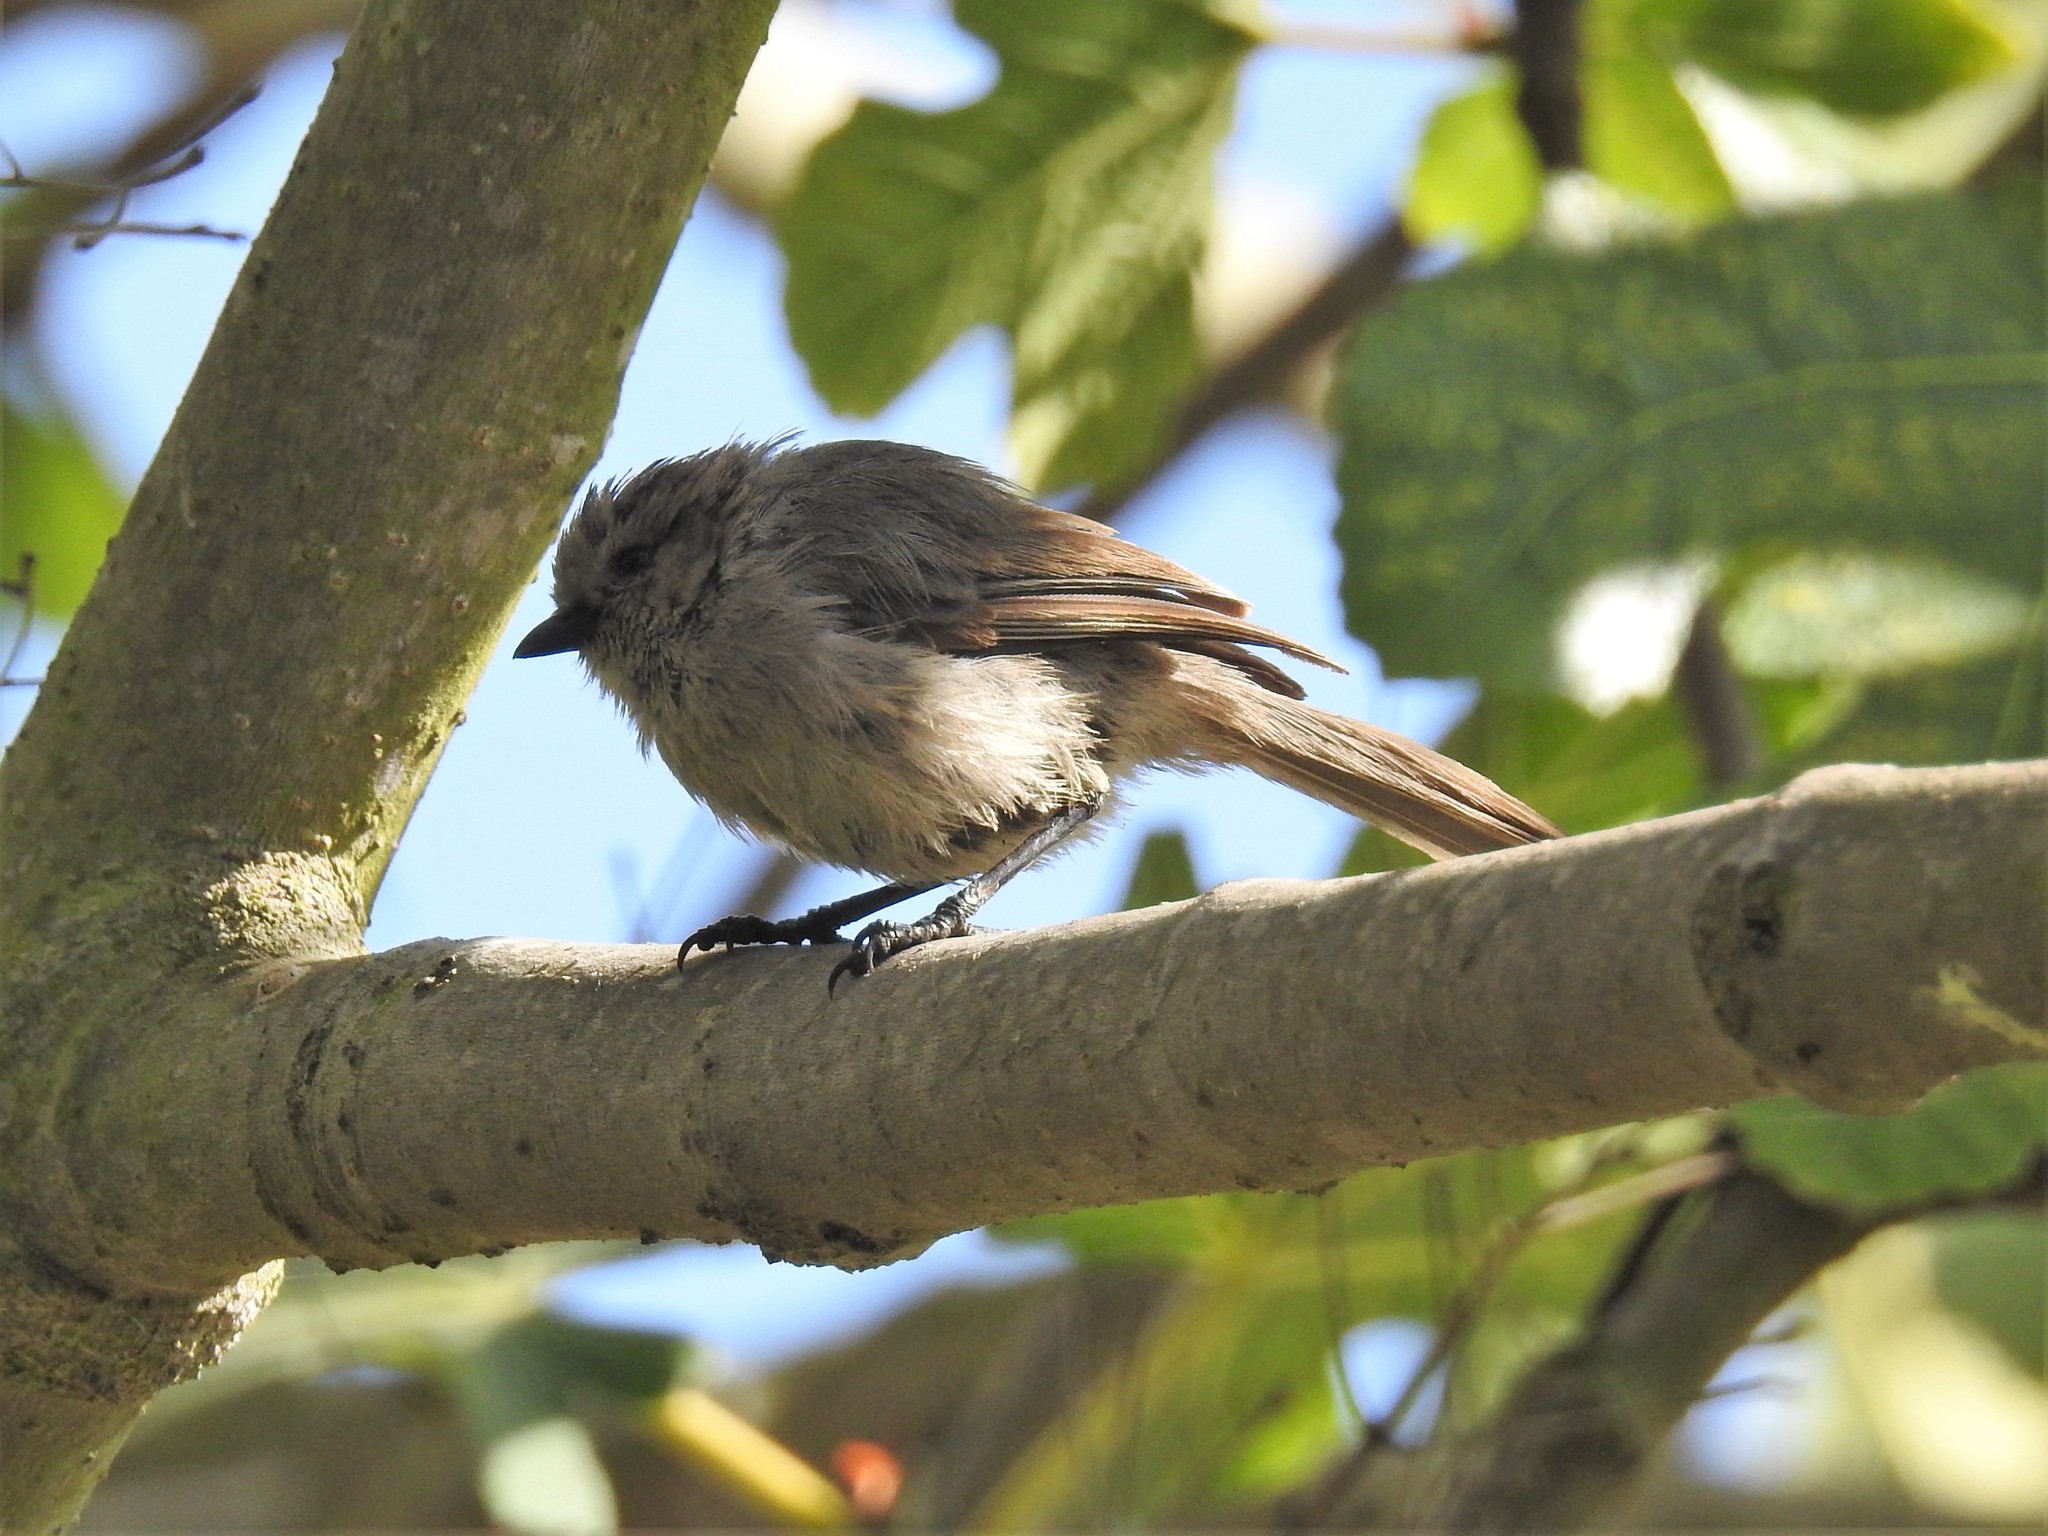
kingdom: Animalia
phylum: Chordata
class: Aves
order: Passeriformes
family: Aegithalidae
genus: Psaltriparus
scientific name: Psaltriparus minimus
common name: American bushtit
